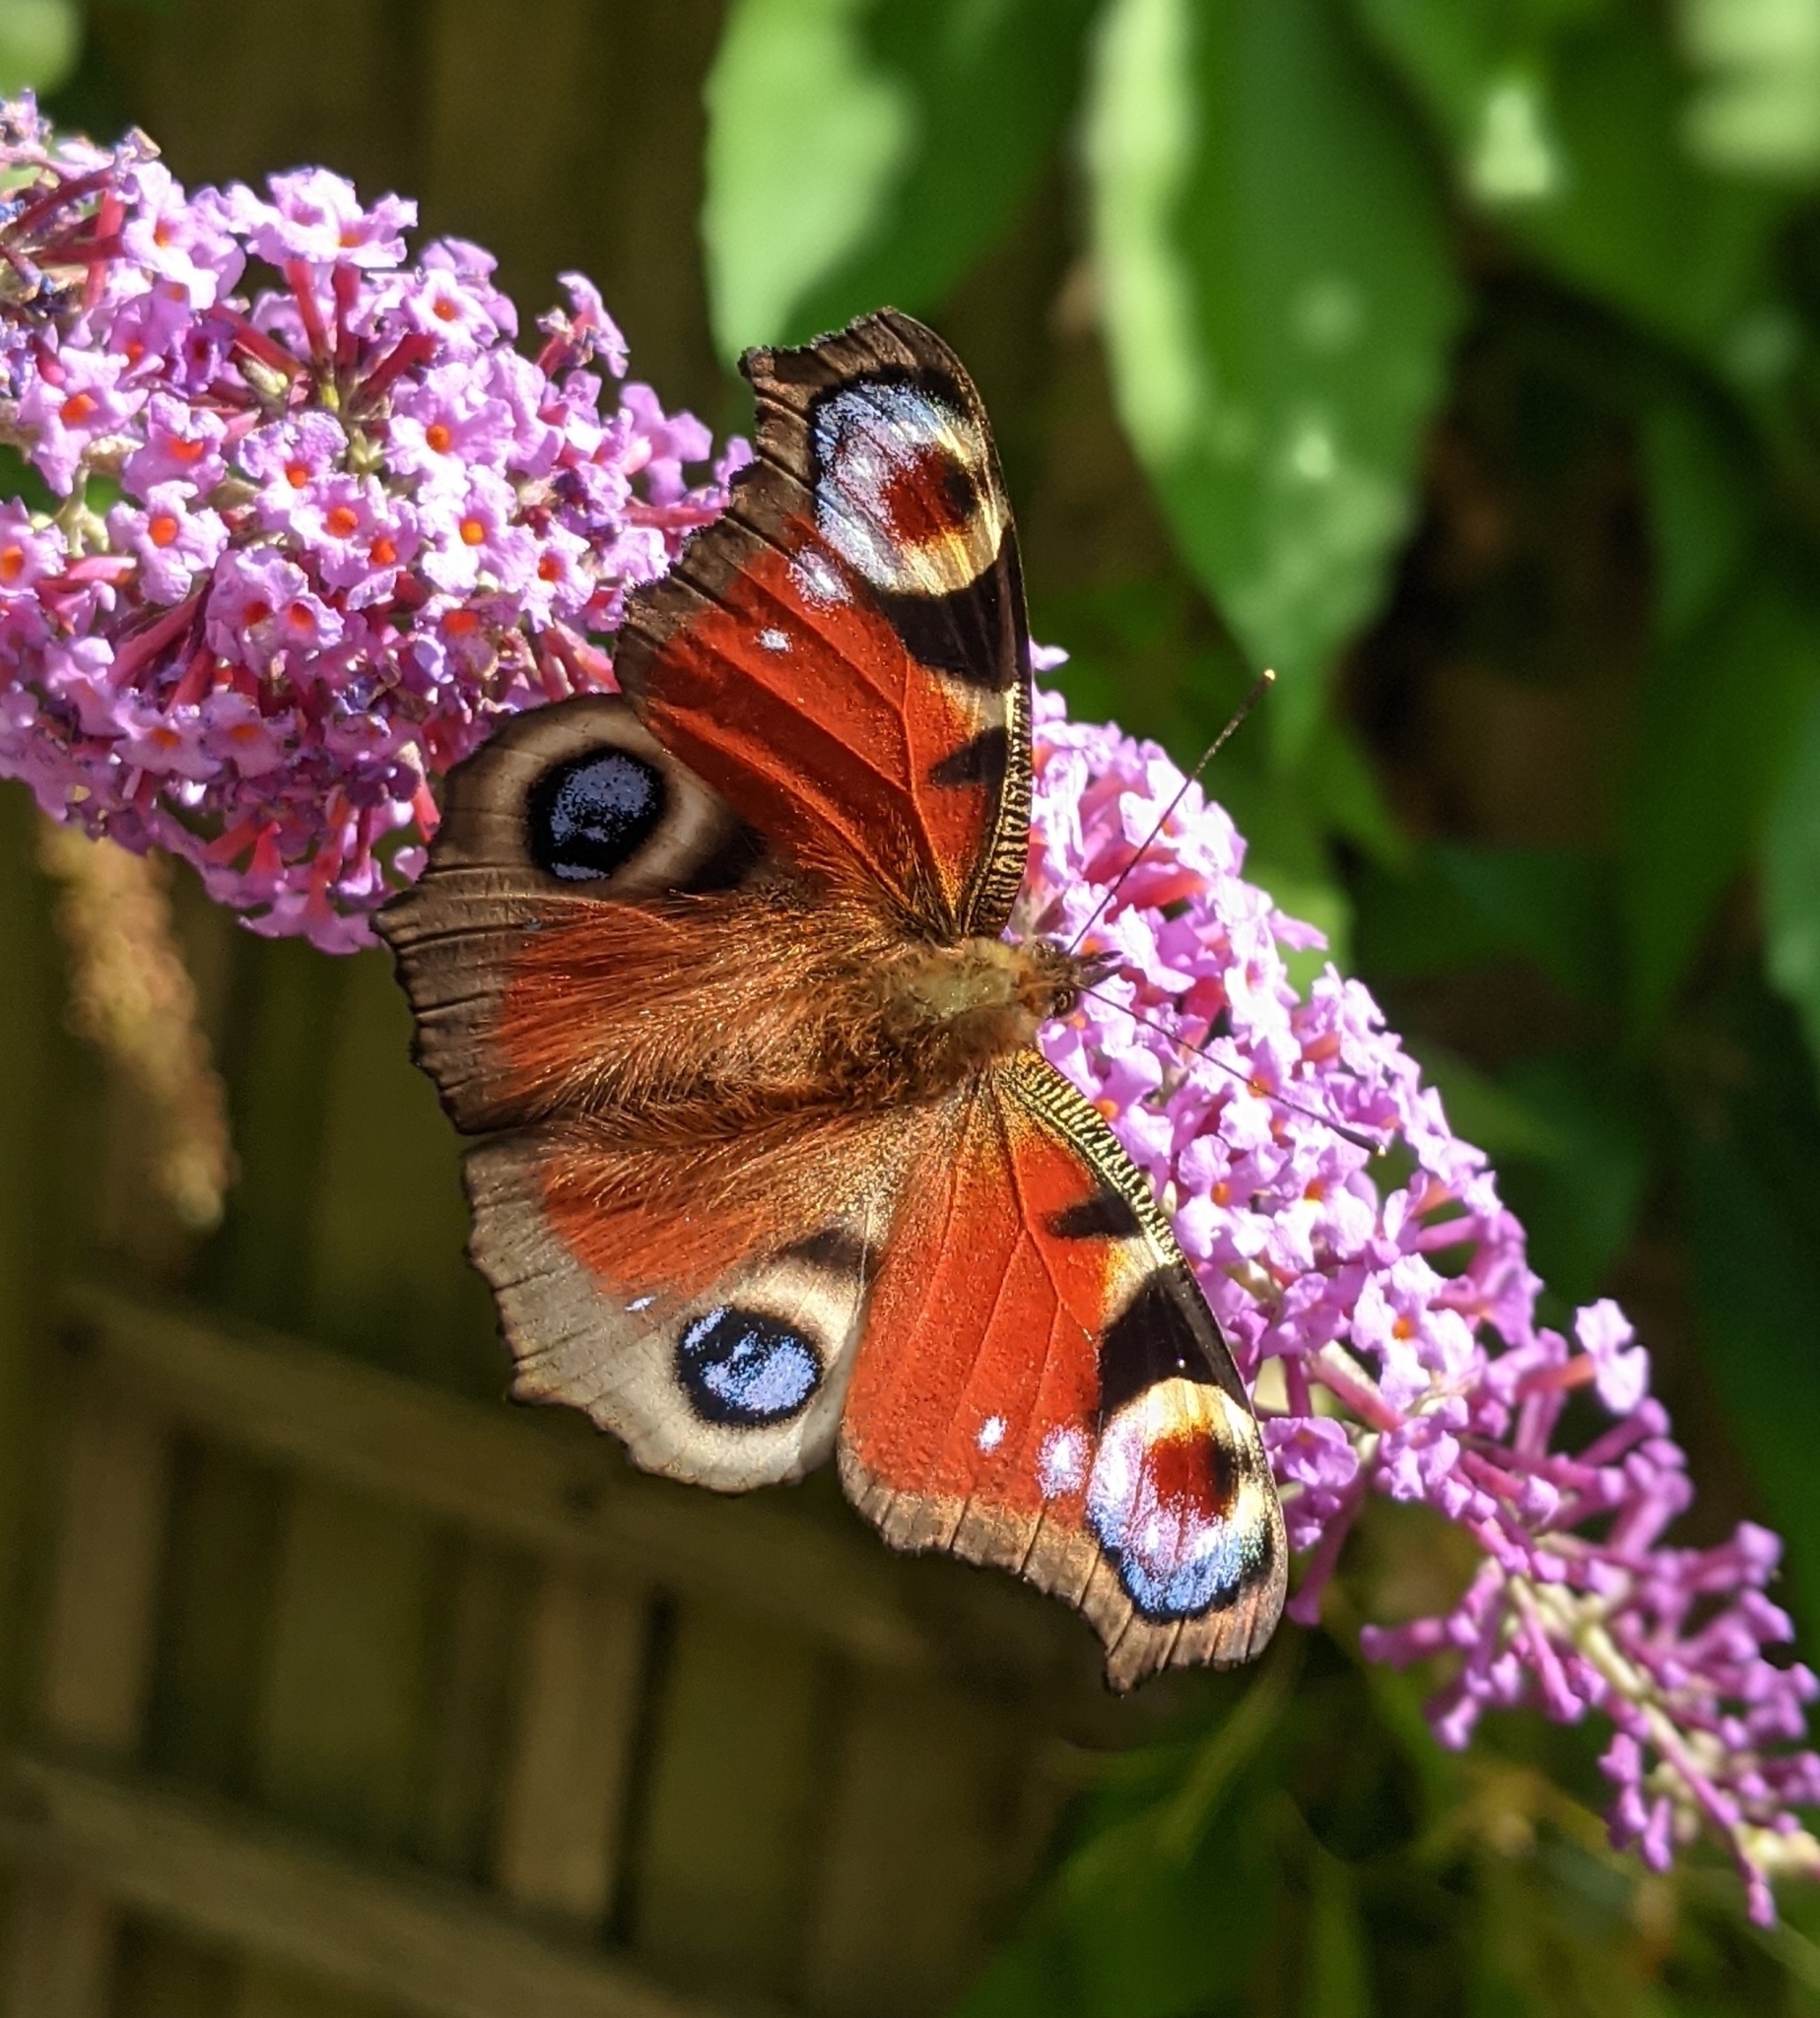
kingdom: Animalia
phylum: Arthropoda
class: Insecta
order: Lepidoptera
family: Nymphalidae
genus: Aglais
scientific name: Aglais io
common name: Peacock
